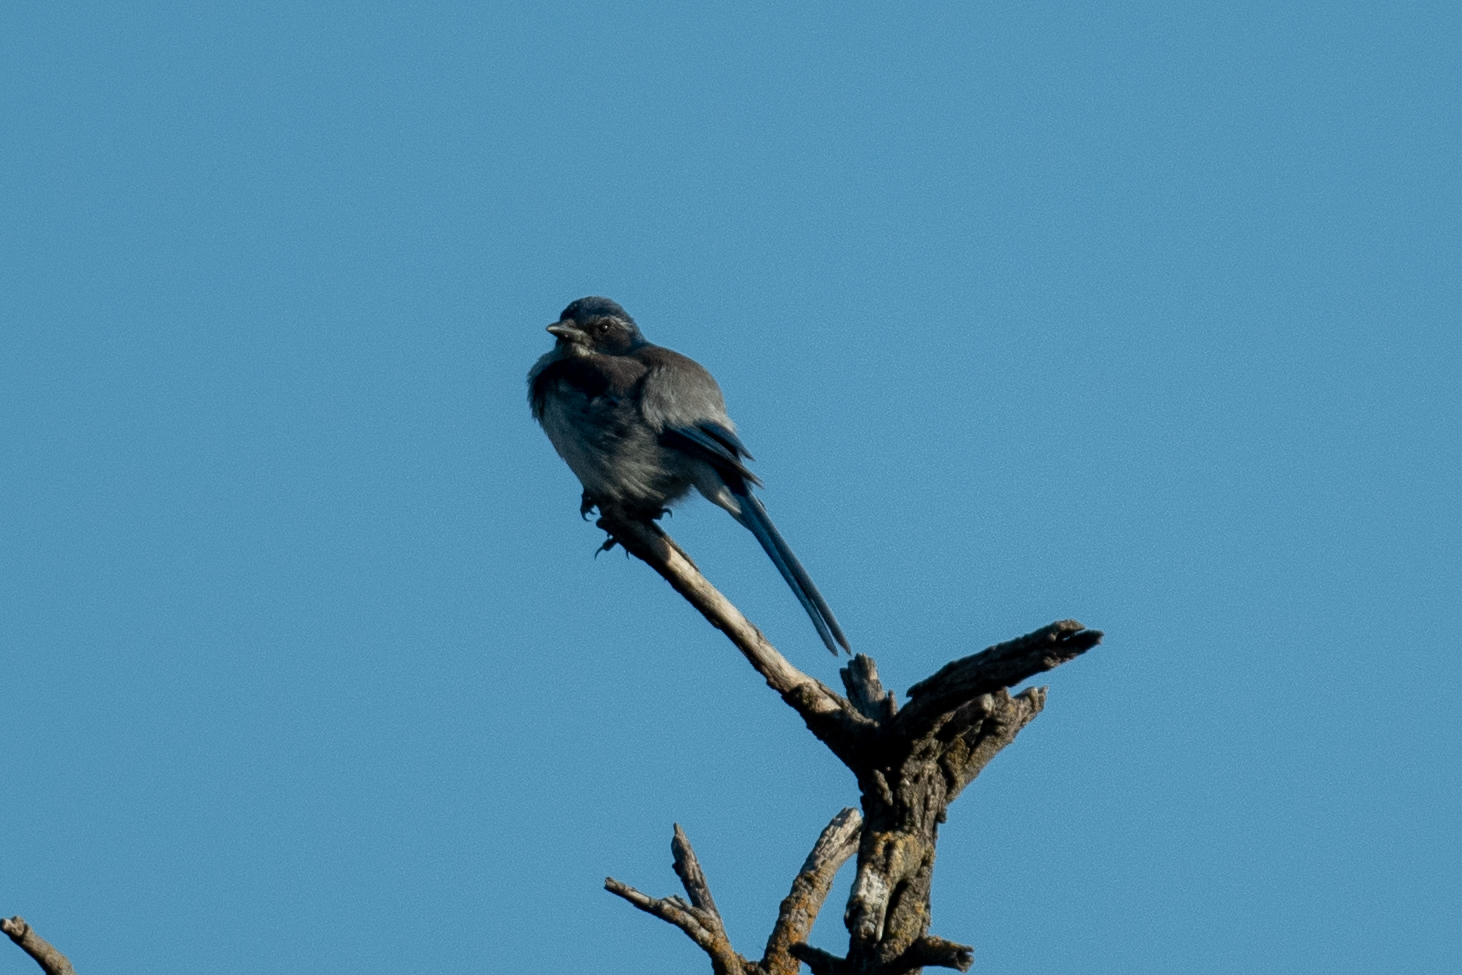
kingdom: Animalia
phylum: Chordata
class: Aves
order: Passeriformes
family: Corvidae
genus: Aphelocoma
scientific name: Aphelocoma californica
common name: California scrub-jay
